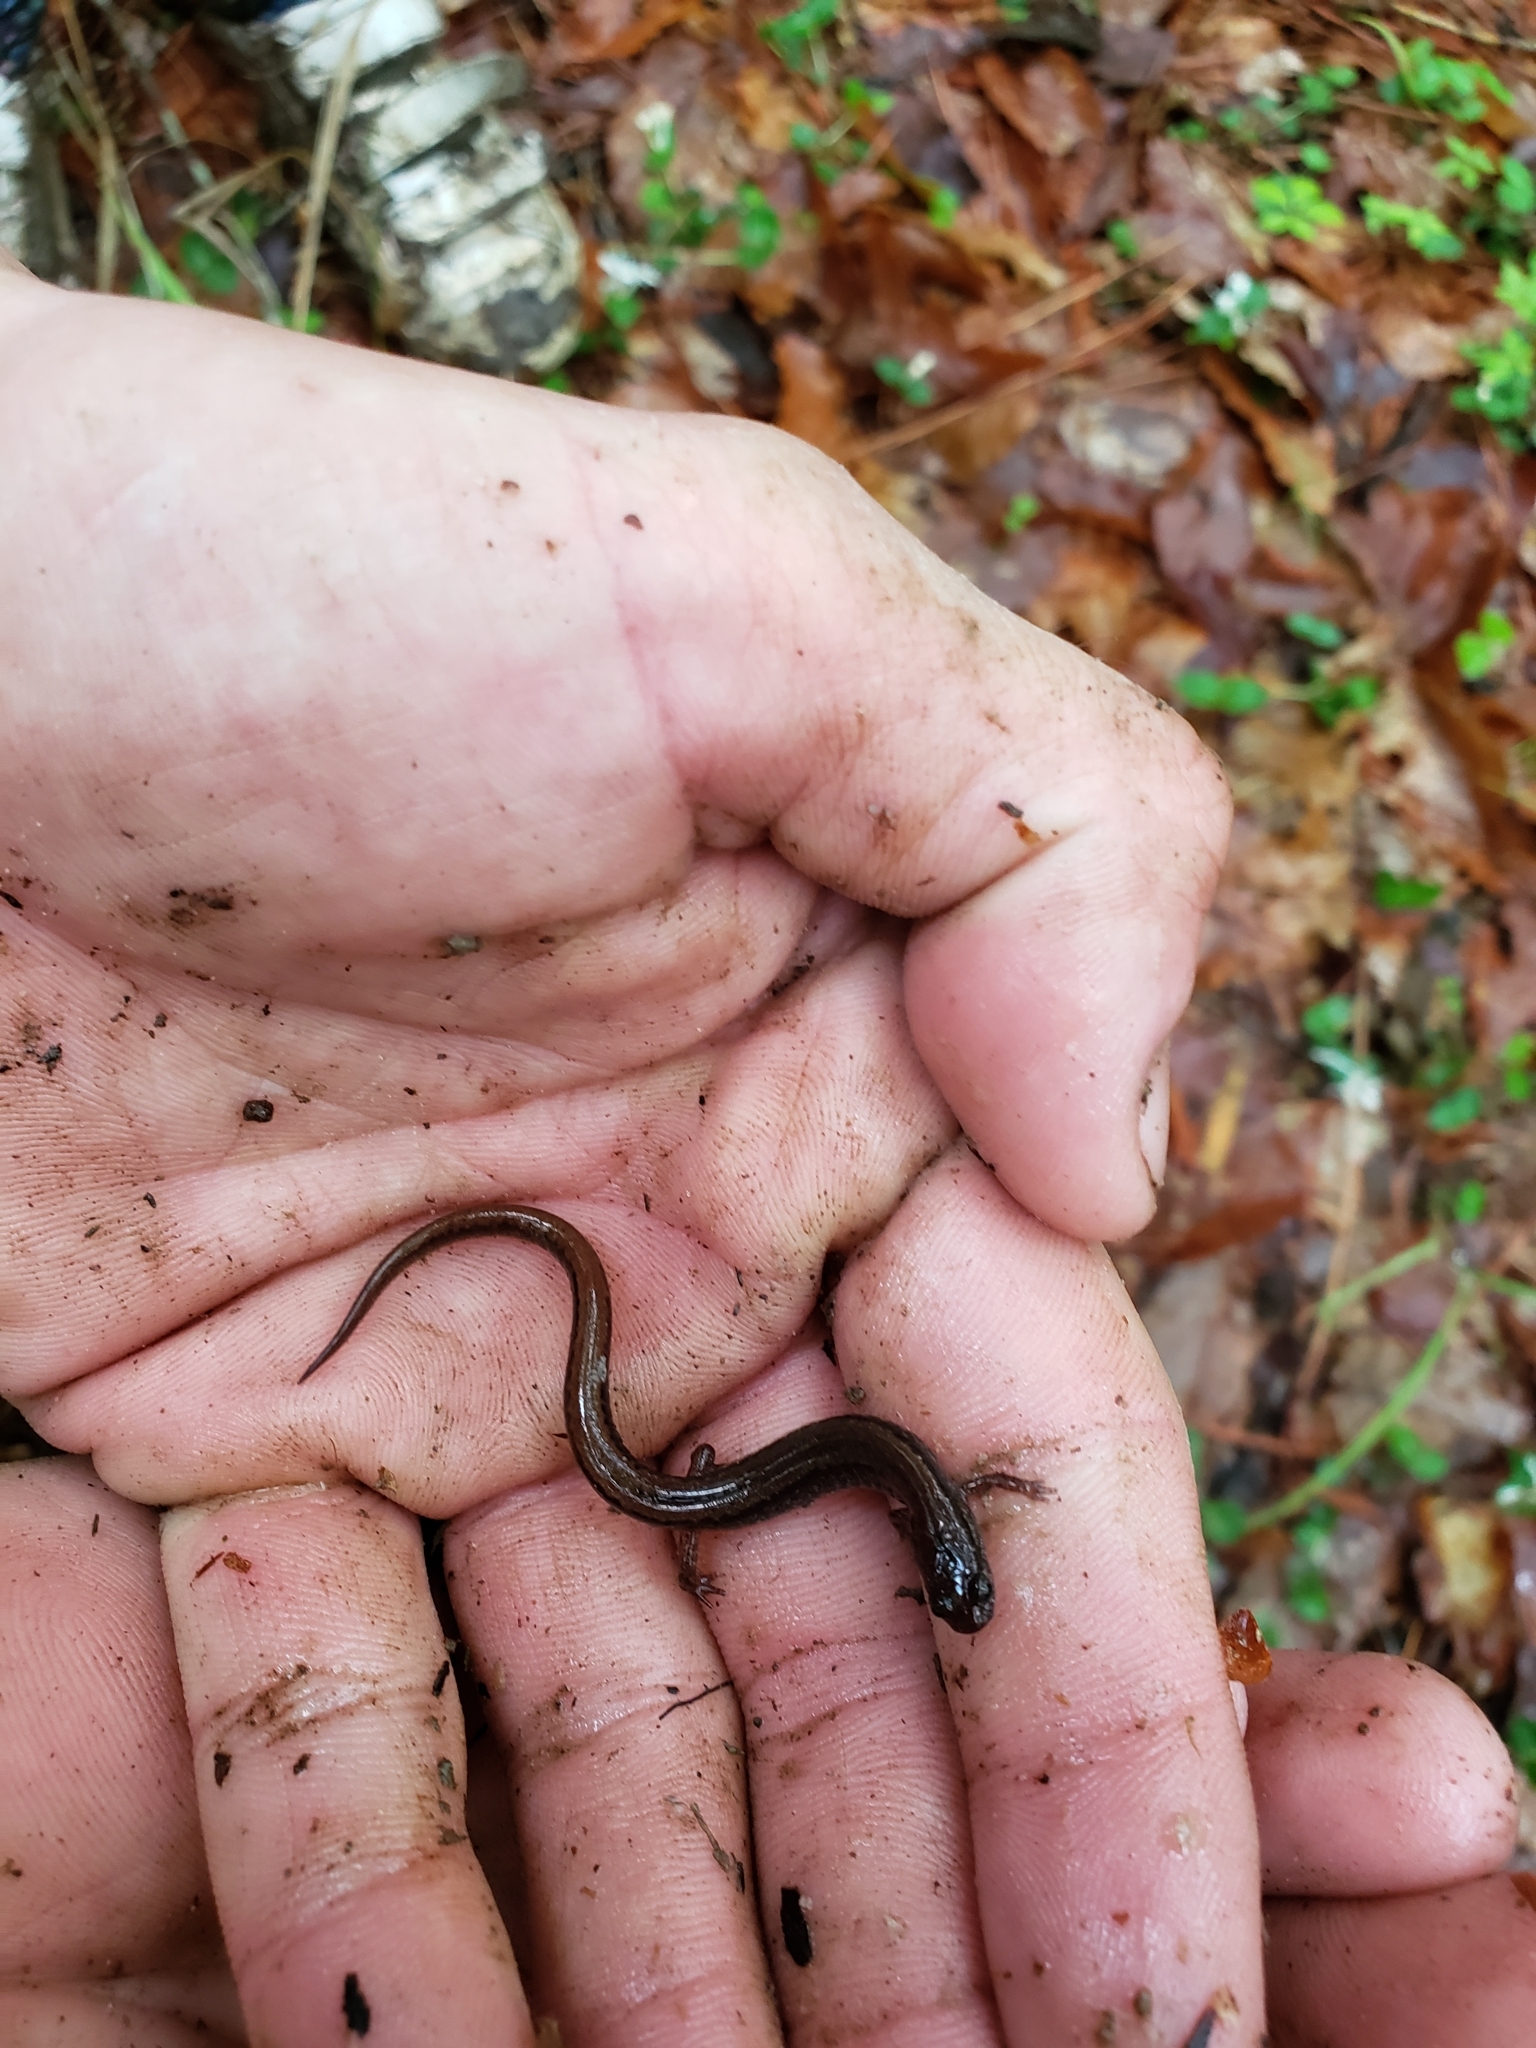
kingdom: Animalia
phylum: Chordata
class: Amphibia
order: Caudata
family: Plethodontidae
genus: Eurycea
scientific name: Eurycea paludicola
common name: Western dwarf salamander
